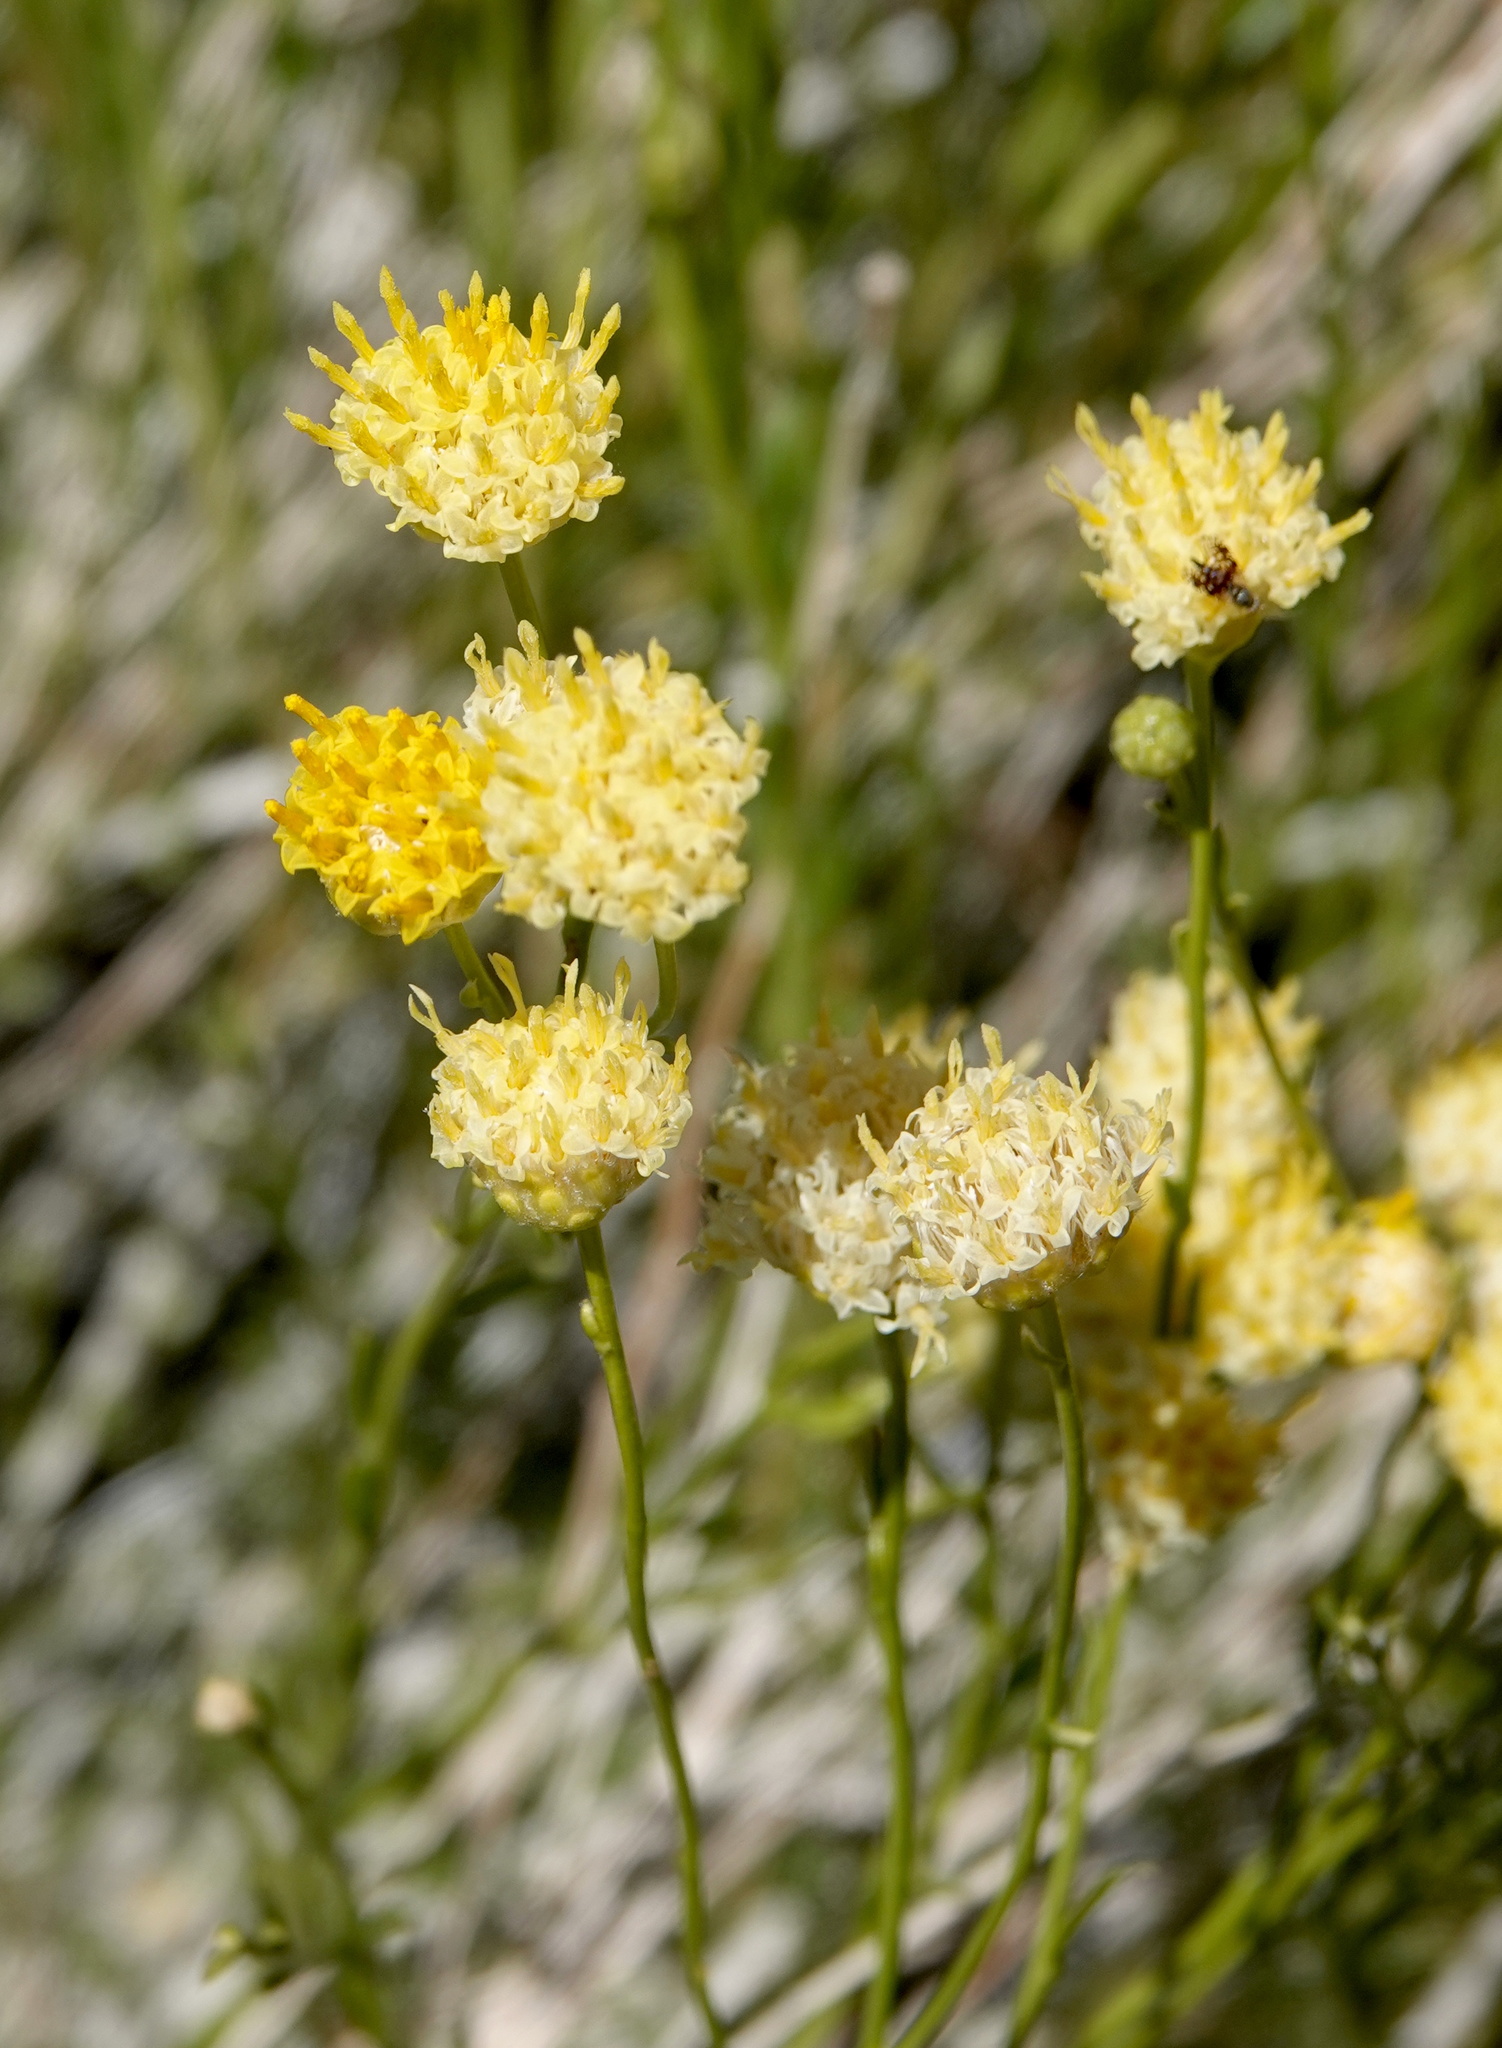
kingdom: Plantae
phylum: Tracheophyta
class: Magnoliopsida
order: Asterales
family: Asteraceae
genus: Acamptopappus
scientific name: Acamptopappus sphaerocephalus
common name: Goldenhead
